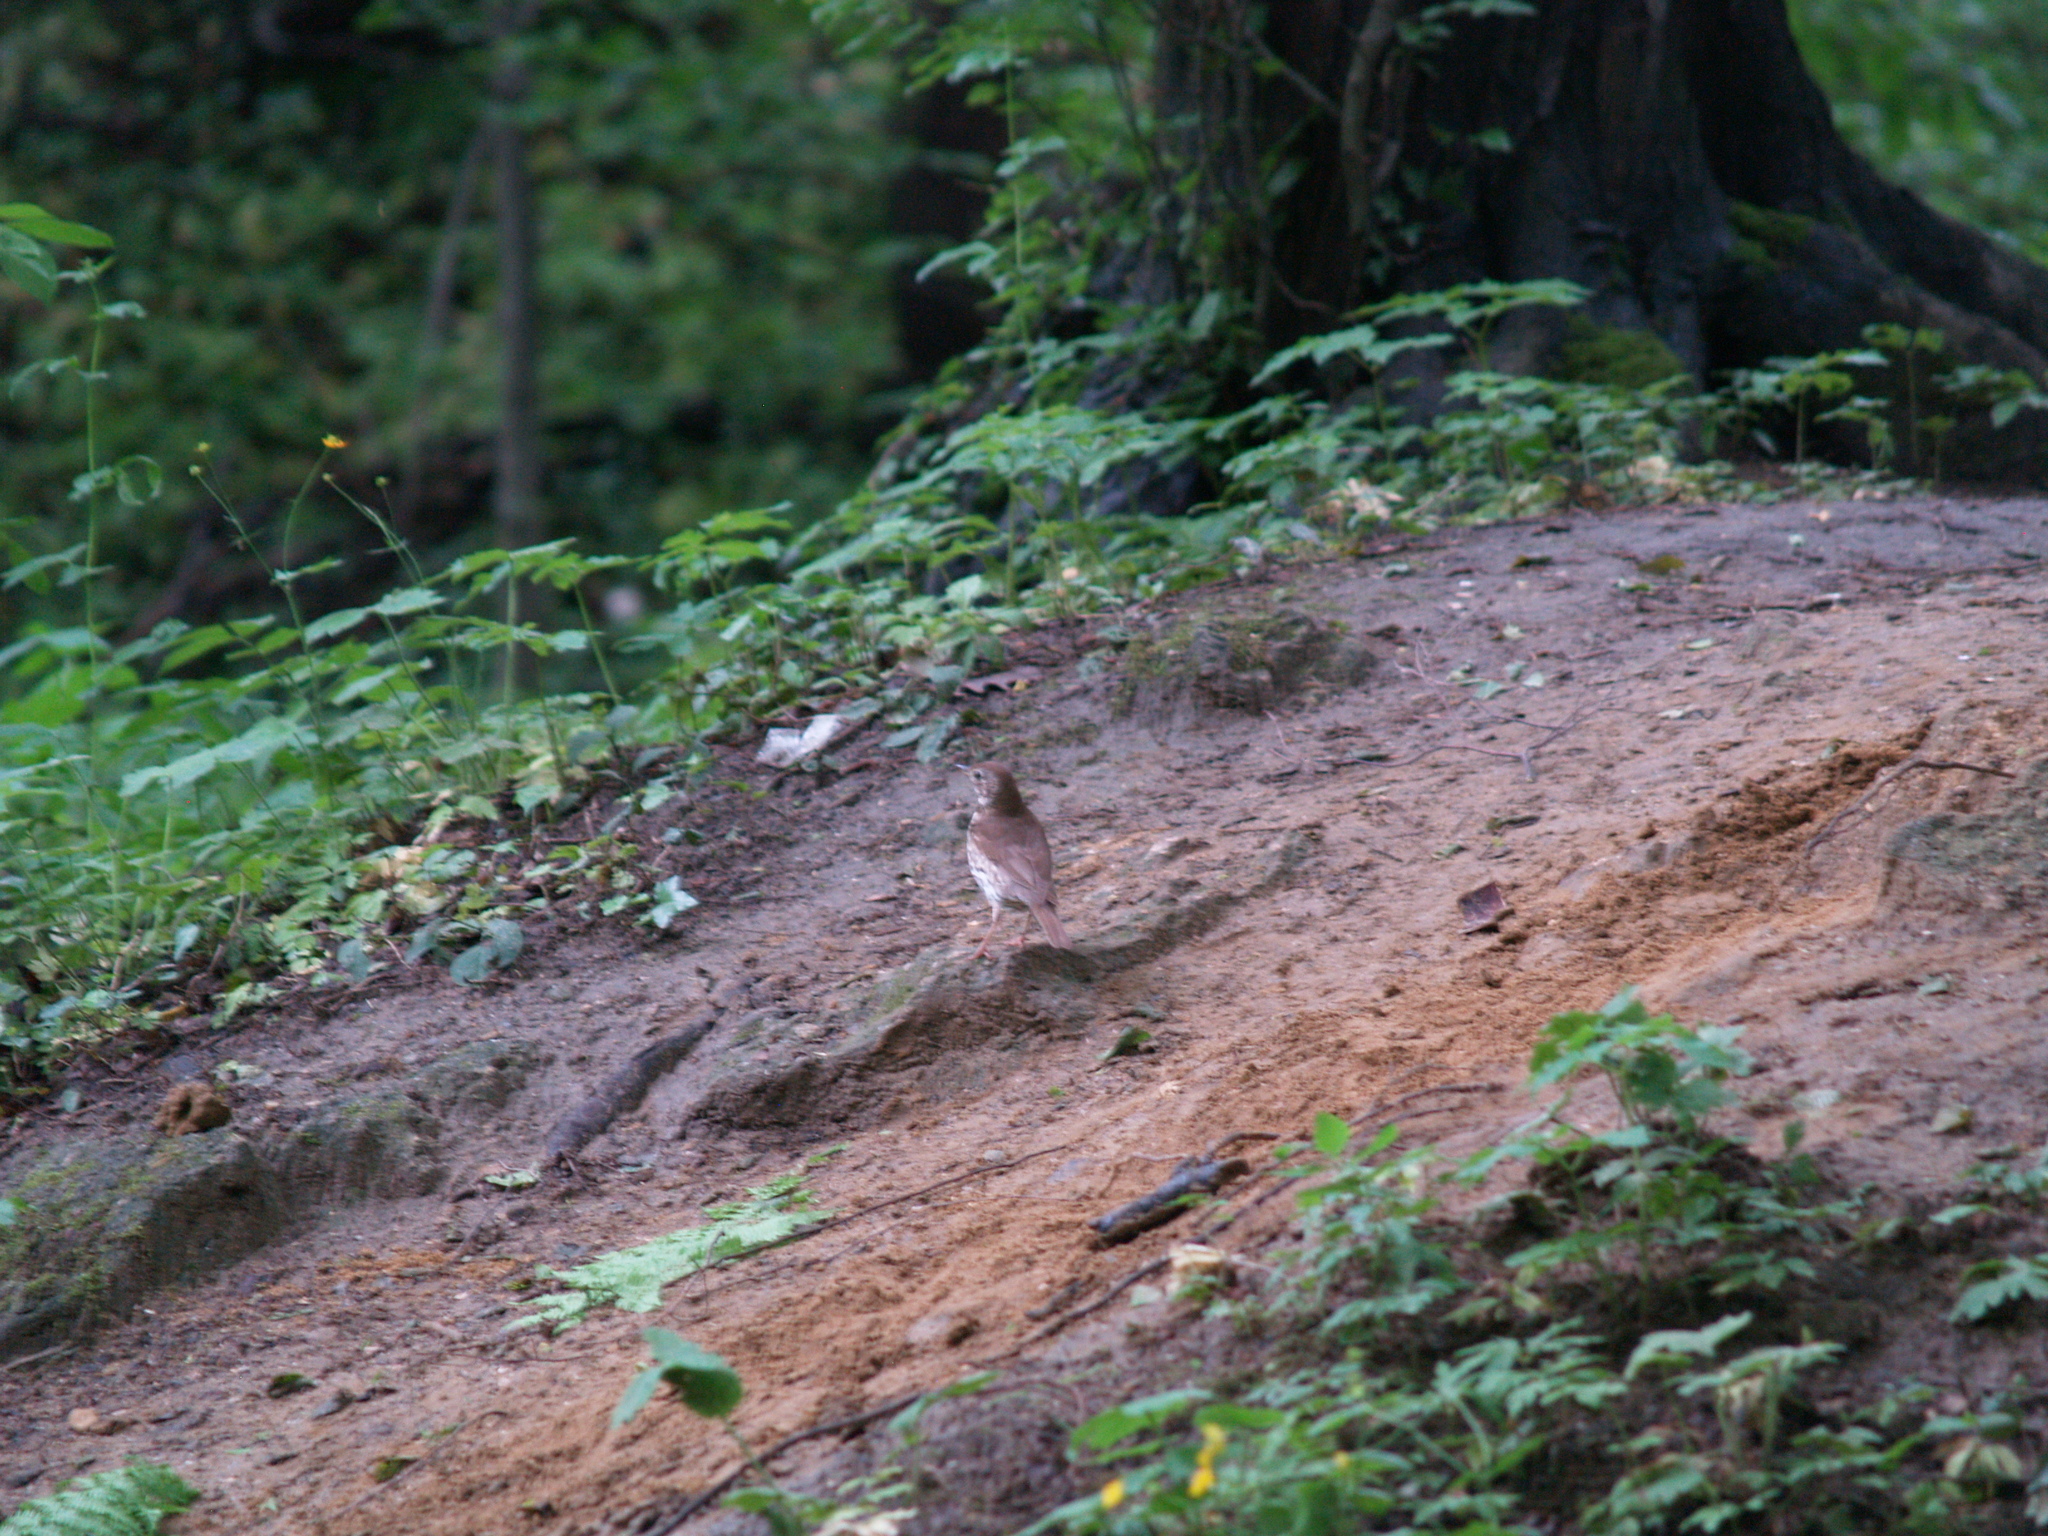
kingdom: Animalia
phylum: Chordata
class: Aves
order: Passeriformes
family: Turdidae
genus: Turdus
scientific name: Turdus philomelos
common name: Song thrush
